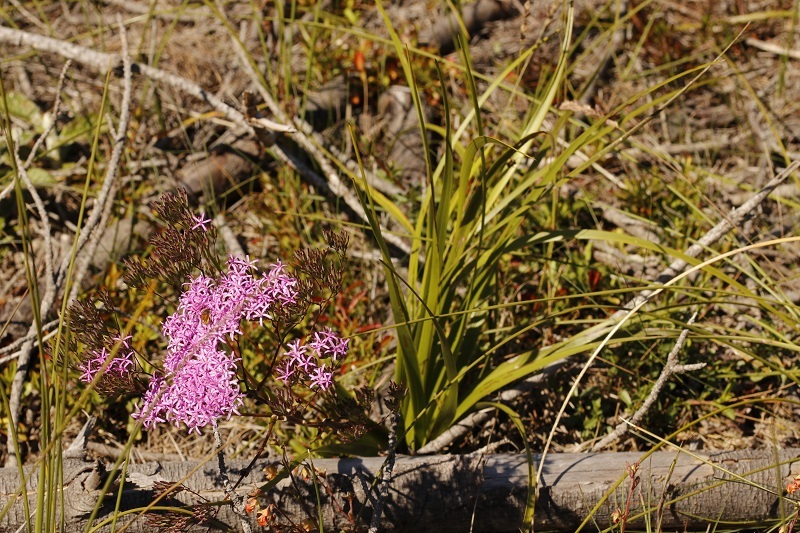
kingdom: Plantae
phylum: Tracheophyta
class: Magnoliopsida
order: Asterales
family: Asteraceae
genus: Corymbium
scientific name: Corymbium glabrum
